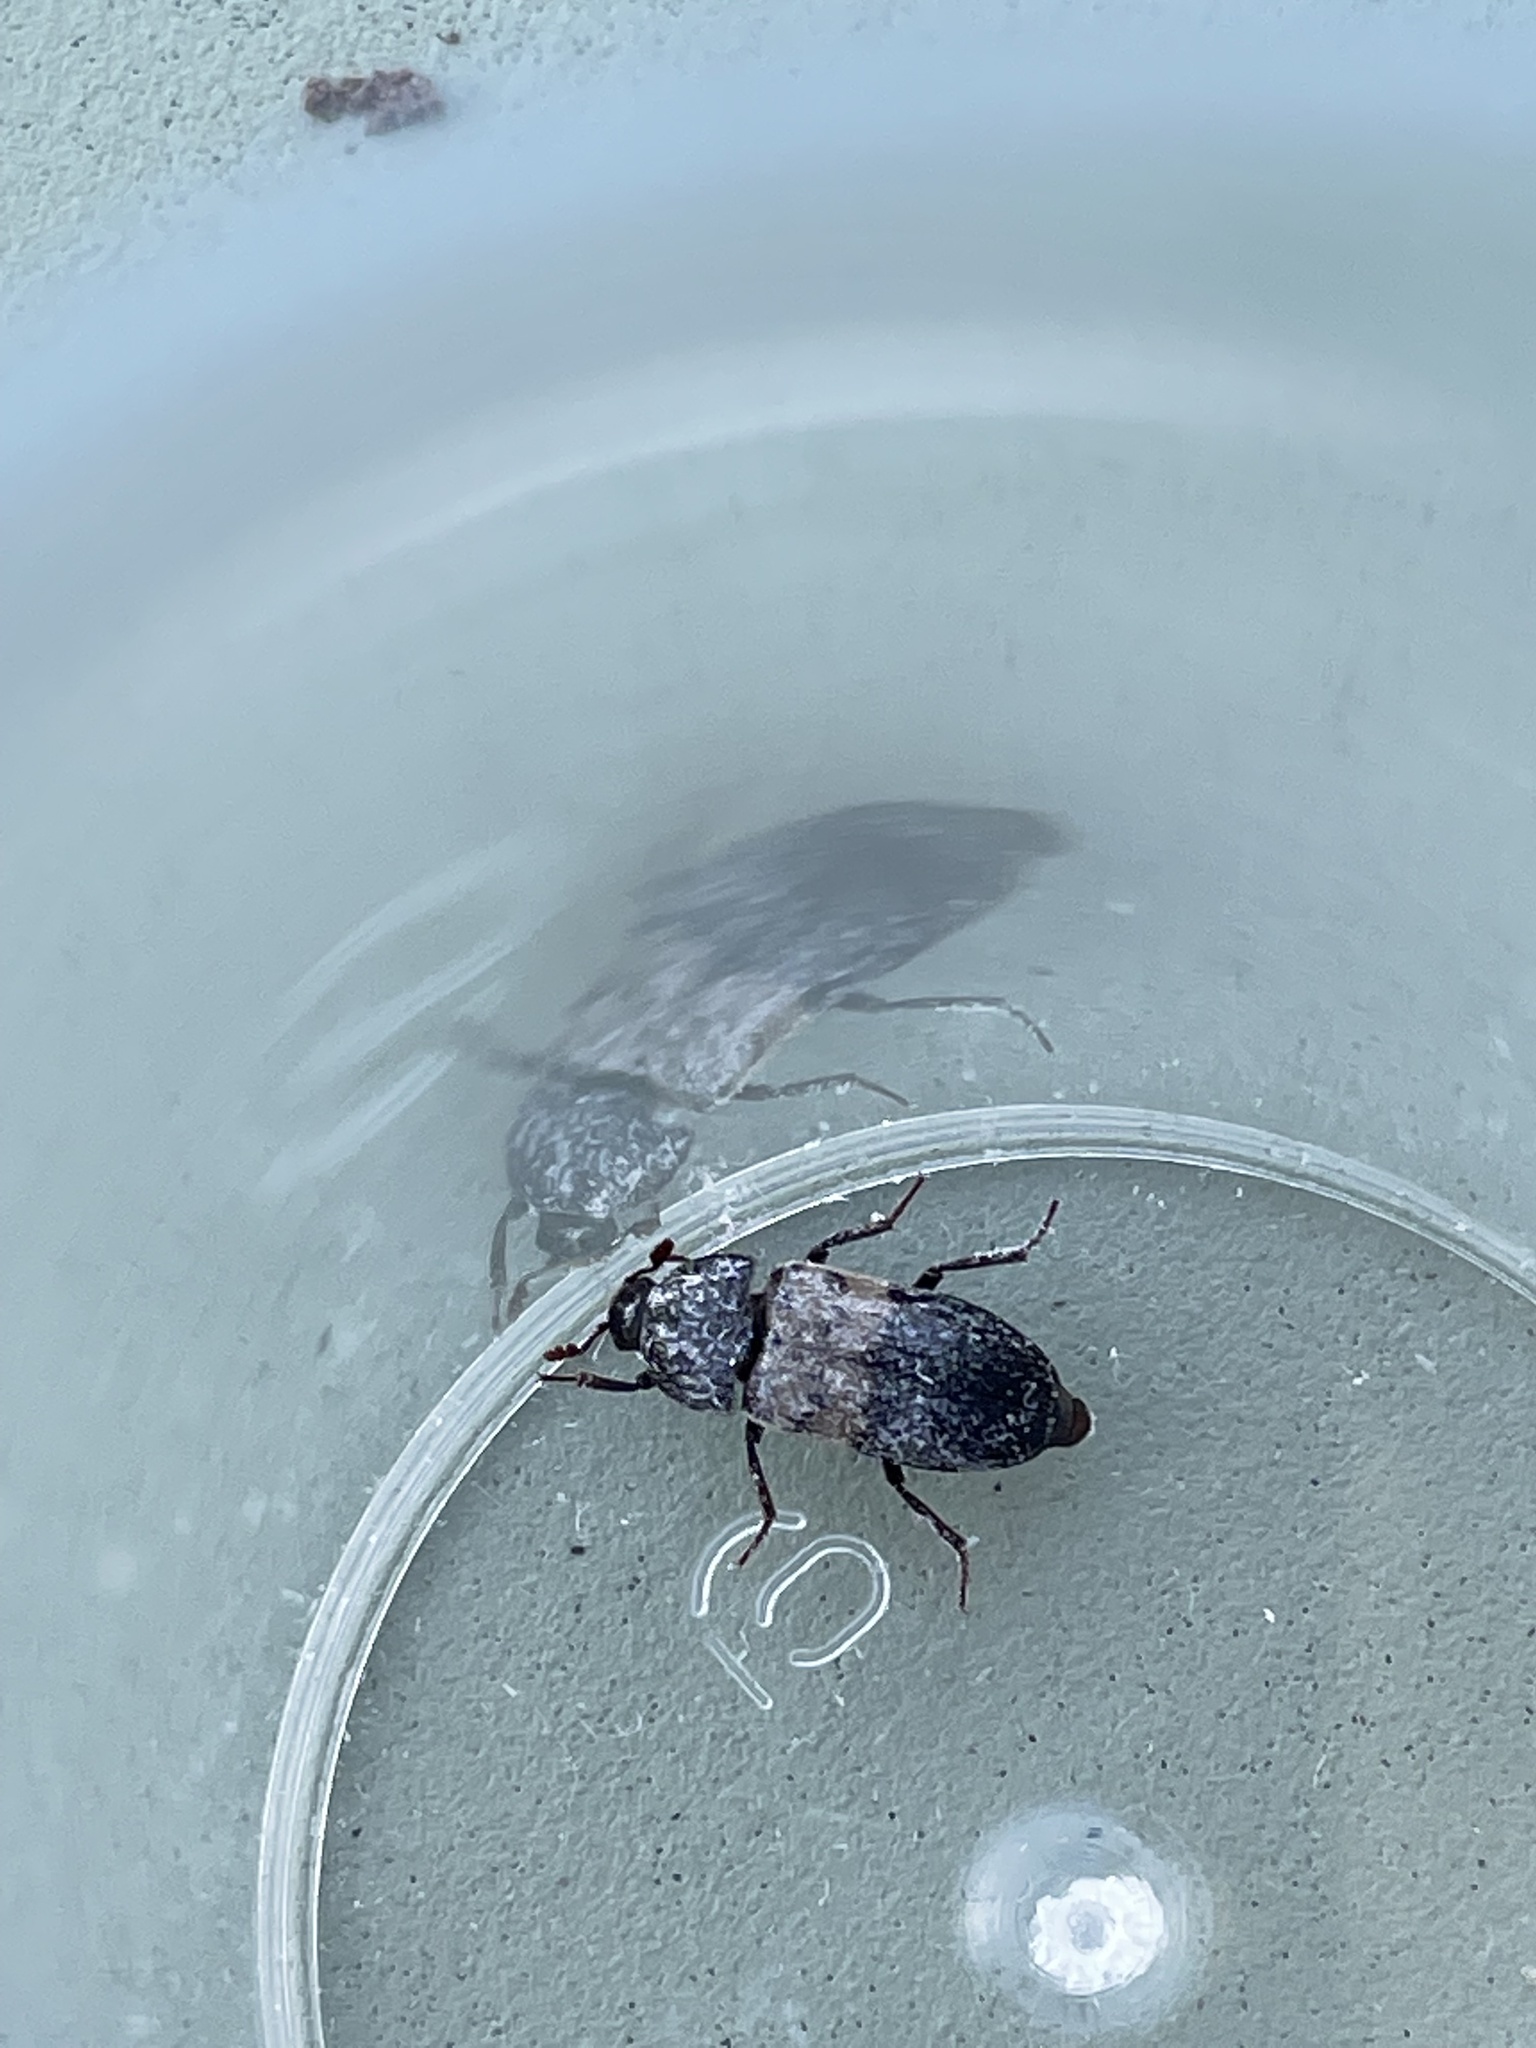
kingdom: Animalia
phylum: Arthropoda
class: Insecta
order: Coleoptera
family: Dermestidae
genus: Dermestes
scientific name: Dermestes lardarius
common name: Larder beetle
